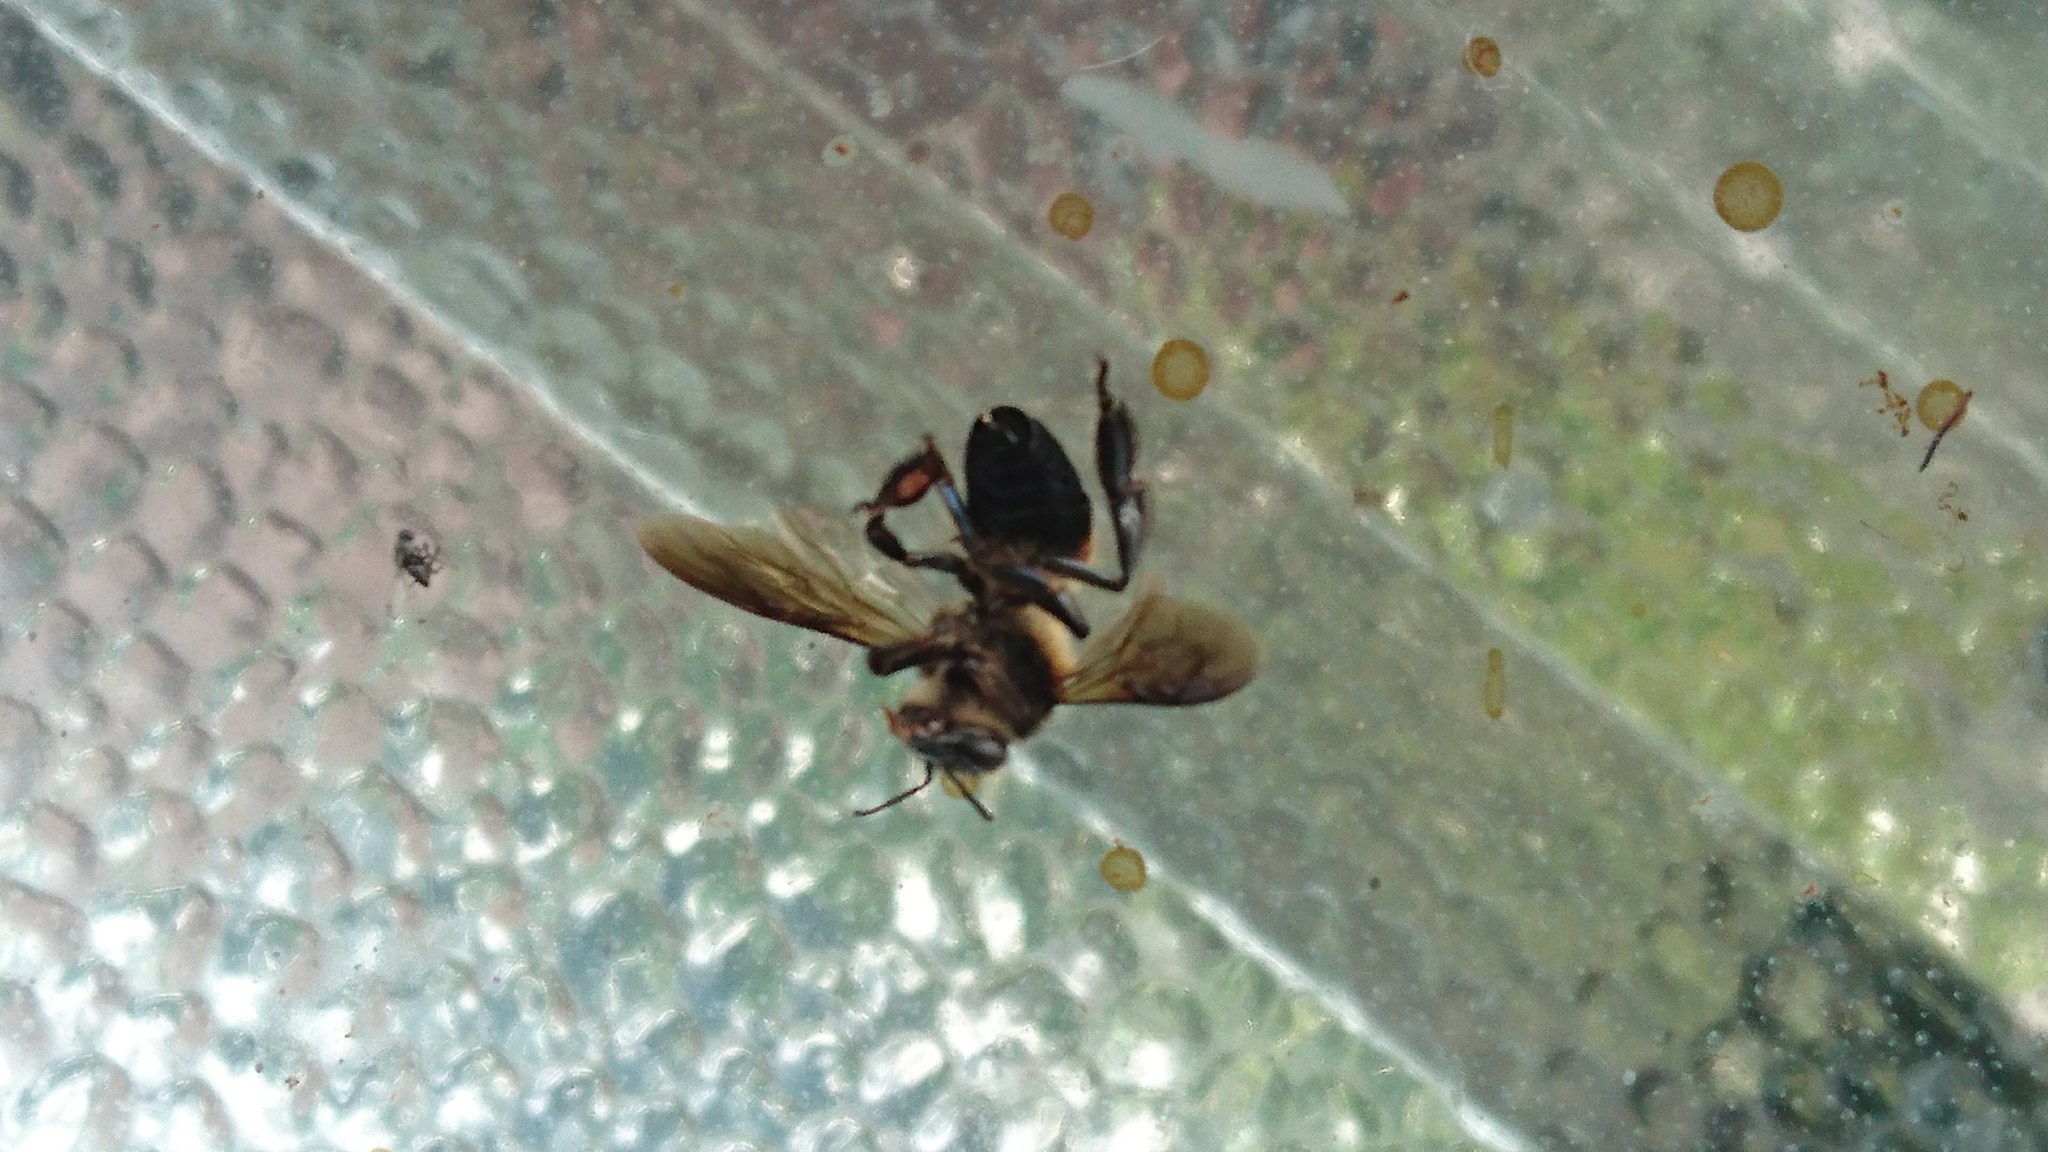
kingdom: Animalia
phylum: Arthropoda
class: Insecta
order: Hymenoptera
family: Apidae
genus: Apis
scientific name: Apis dorsata
